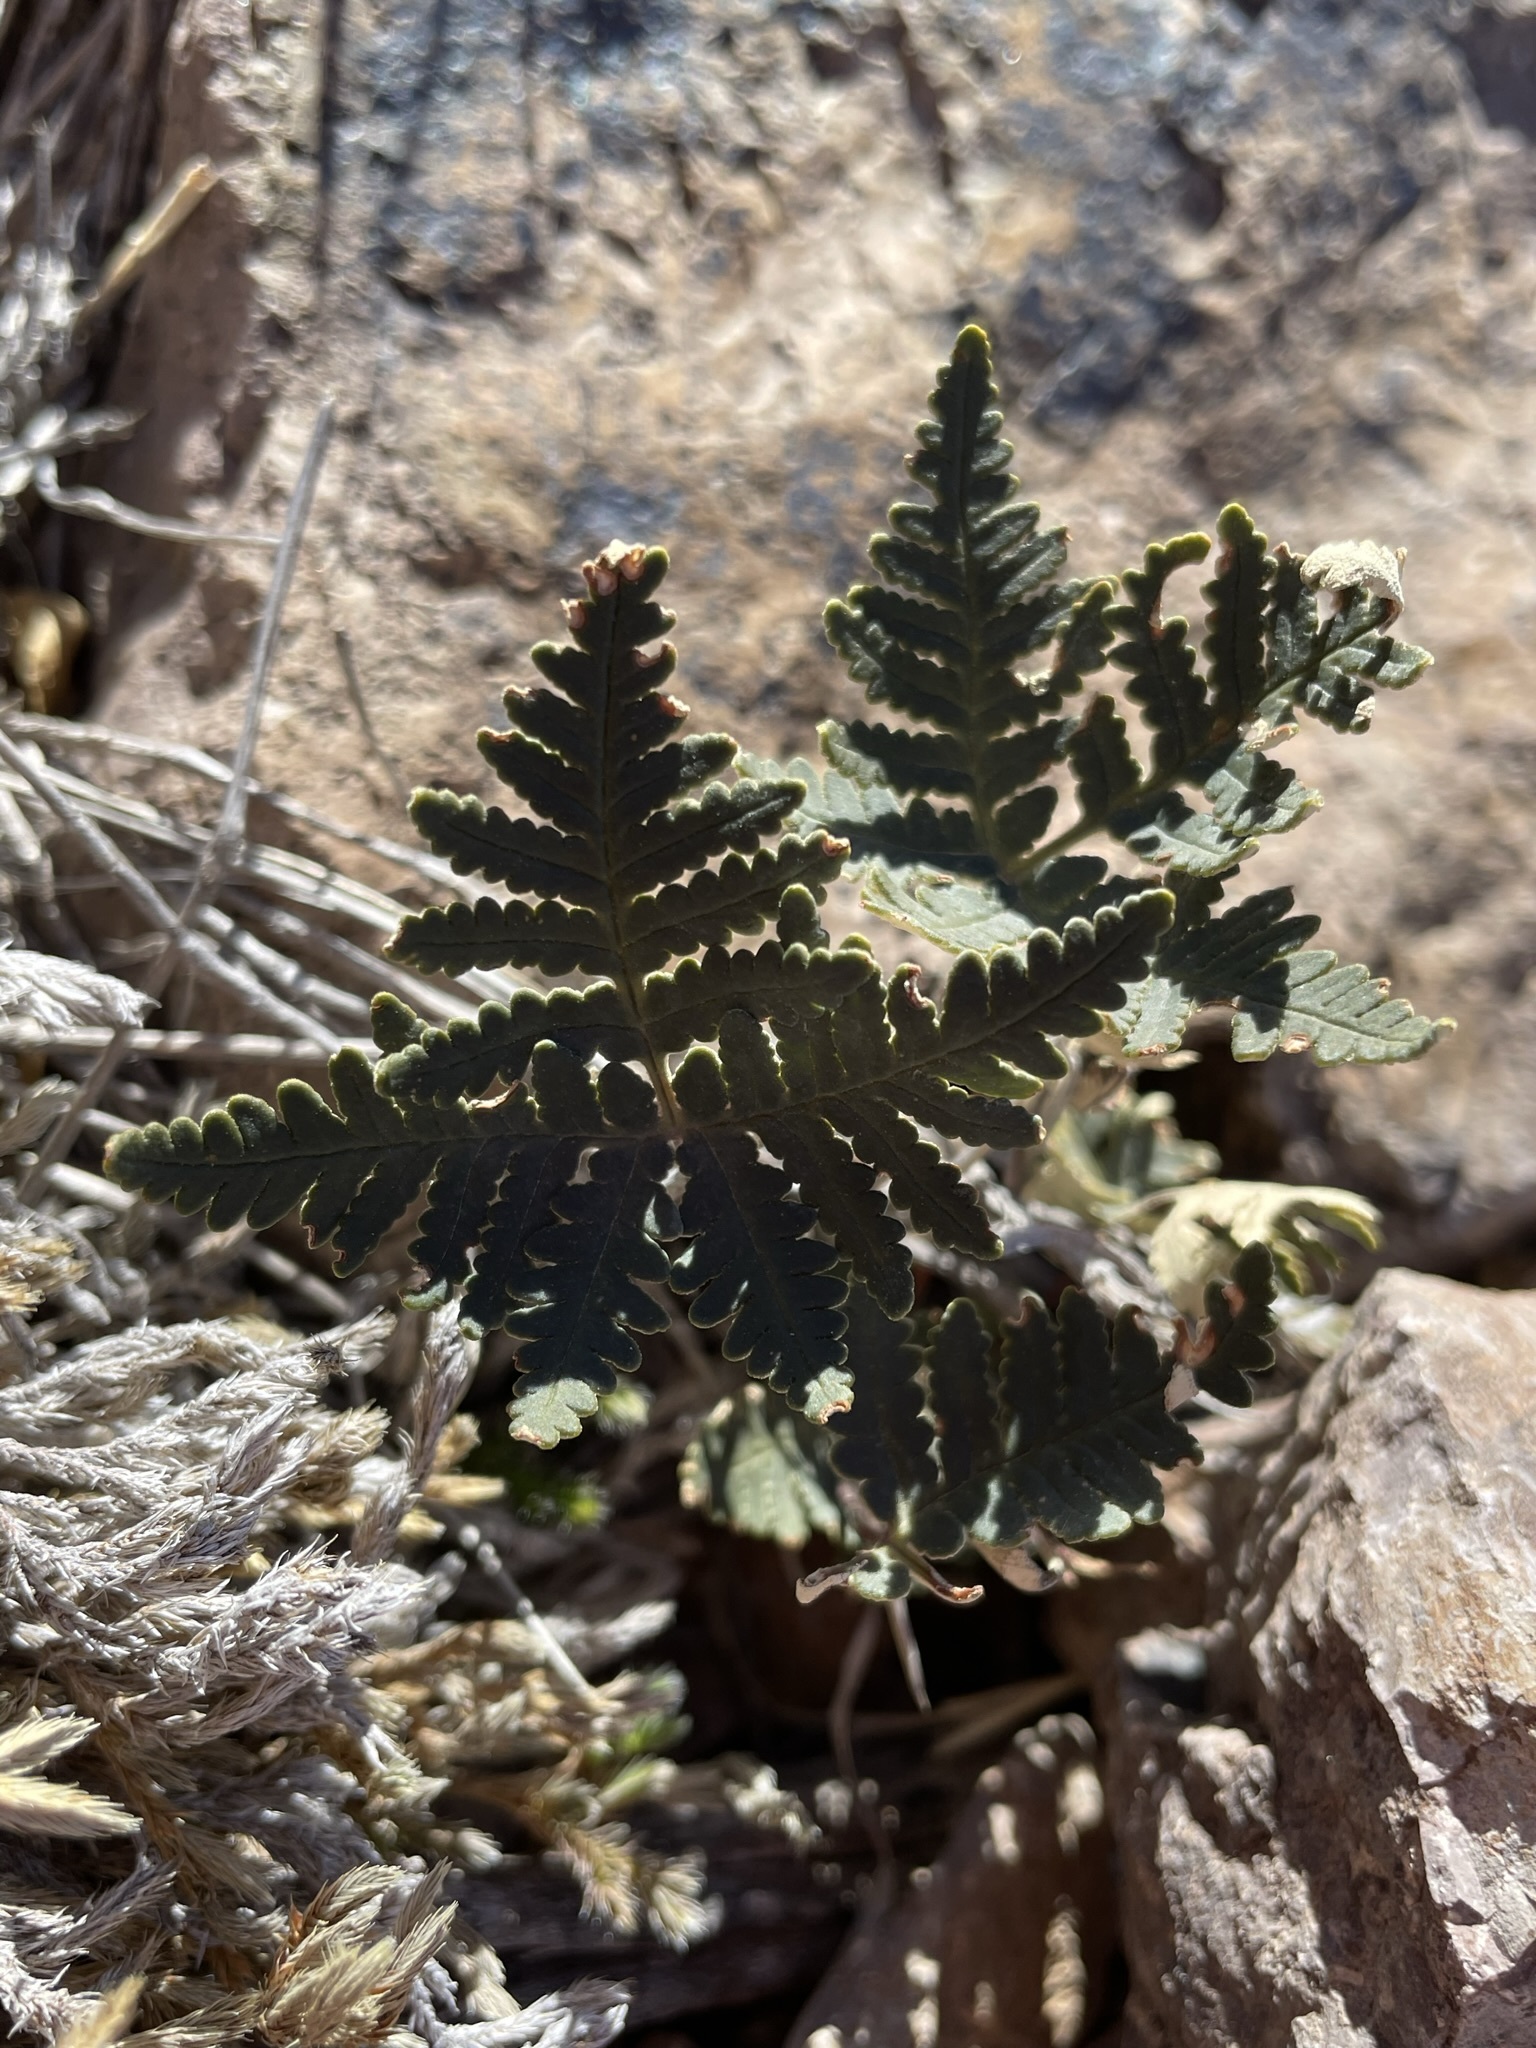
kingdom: Plantae
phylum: Tracheophyta
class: Polypodiopsida
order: Polypodiales
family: Pteridaceae
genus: Notholaena
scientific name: Notholaena standleyi
